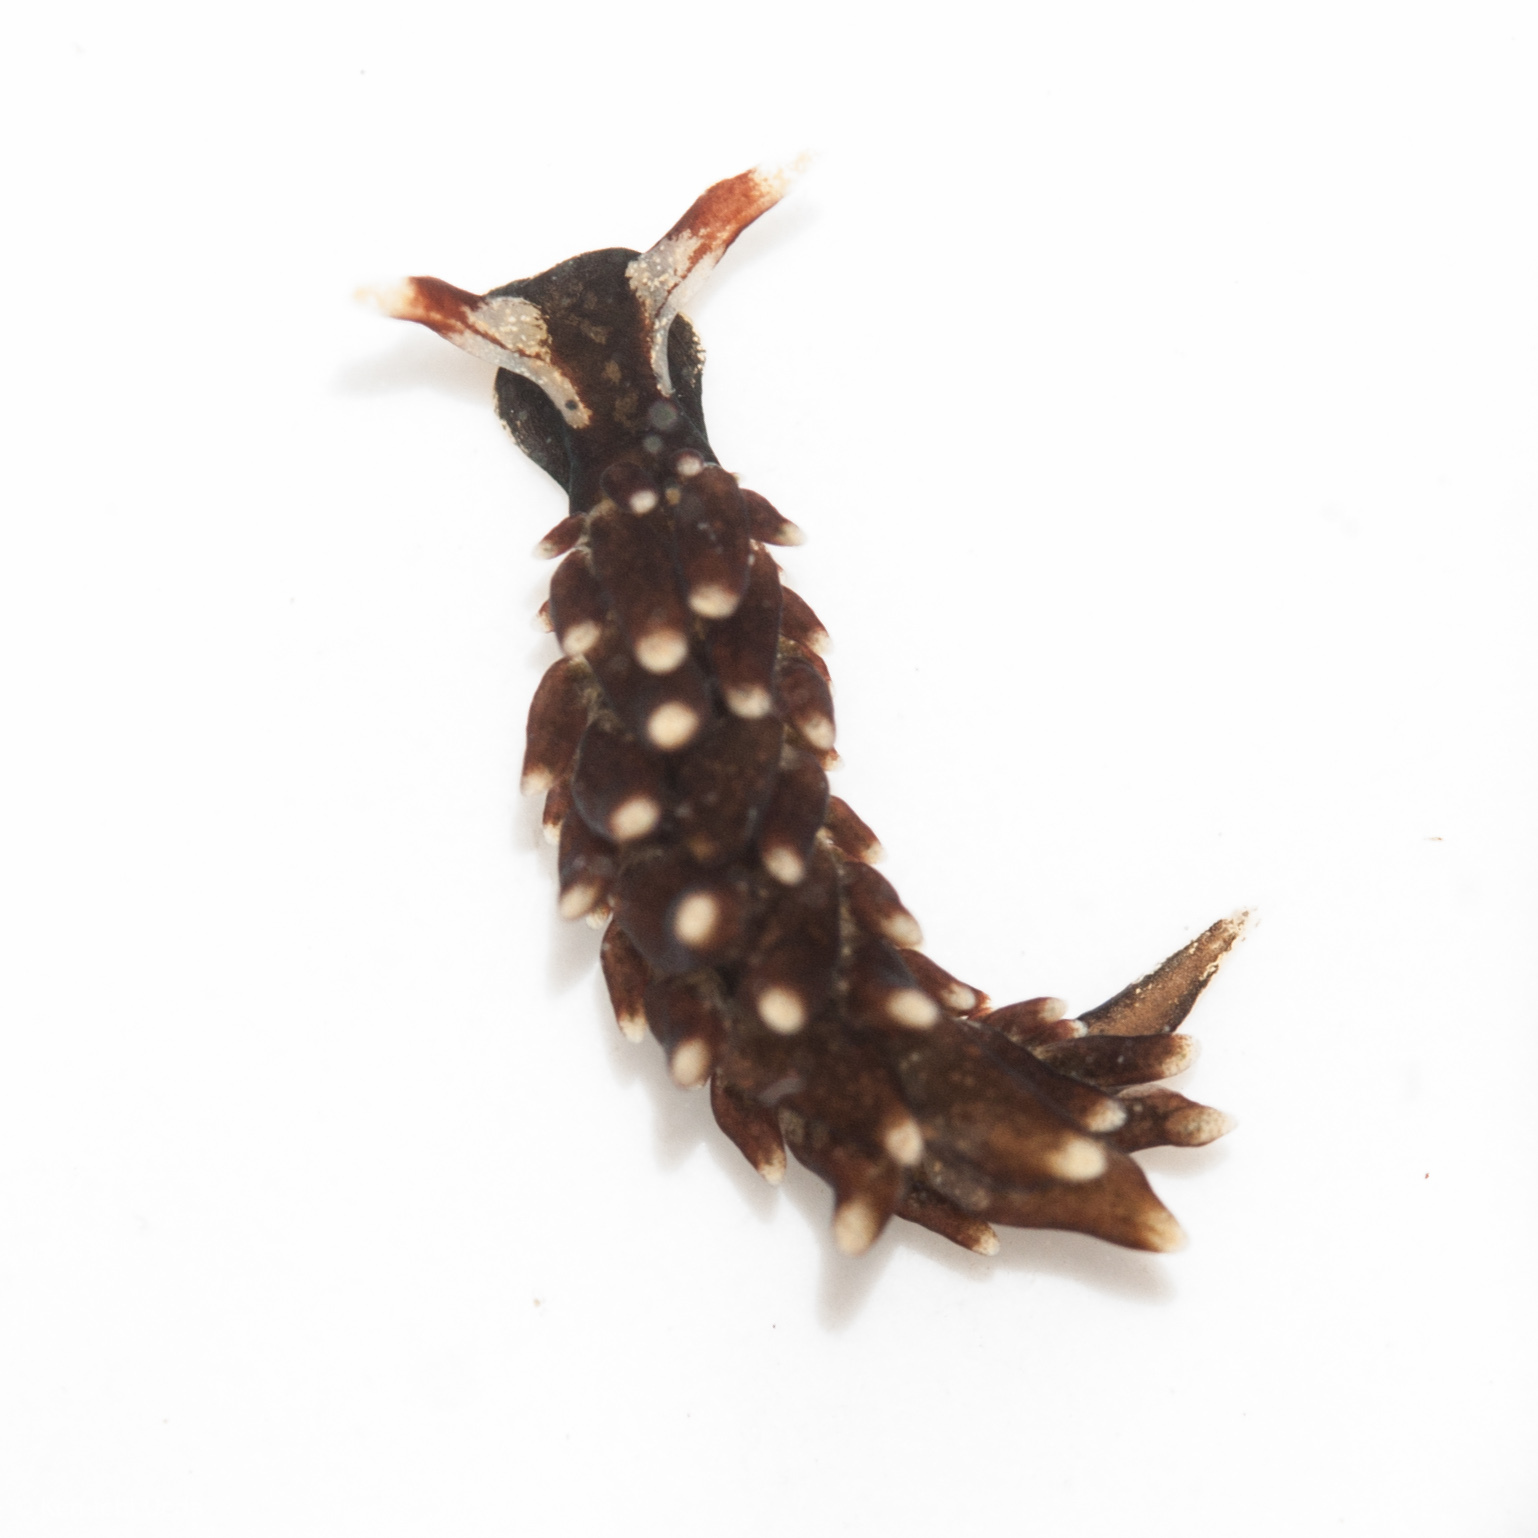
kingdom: Animalia
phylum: Mollusca
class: Gastropoda
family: Hermaeidae
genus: Aplysiopsis
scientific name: Aplysiopsis enteromorphae
